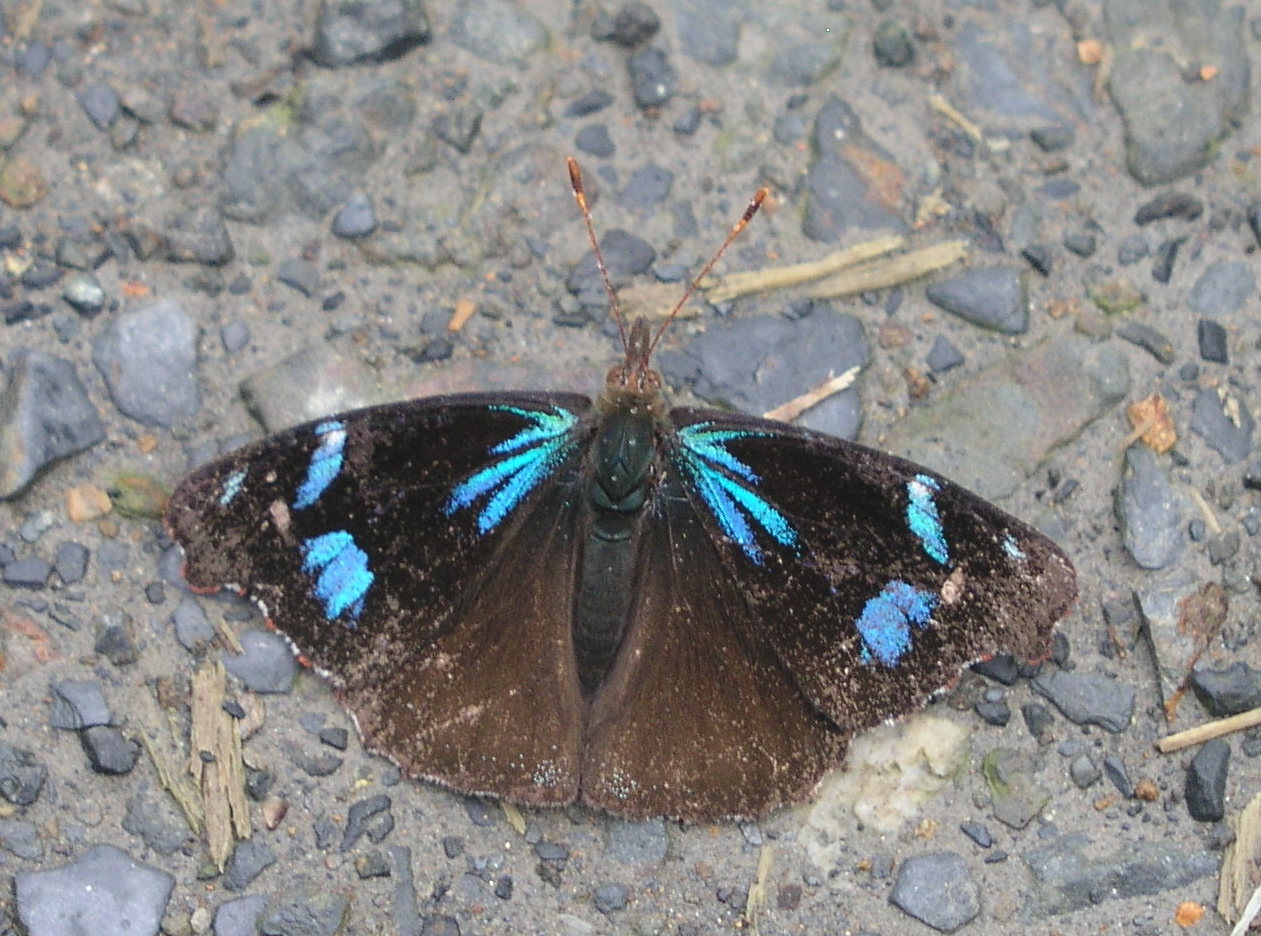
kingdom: Animalia
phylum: Arthropoda
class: Insecta
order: Lepidoptera
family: Nymphalidae
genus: Perisama
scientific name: Perisama diotima
